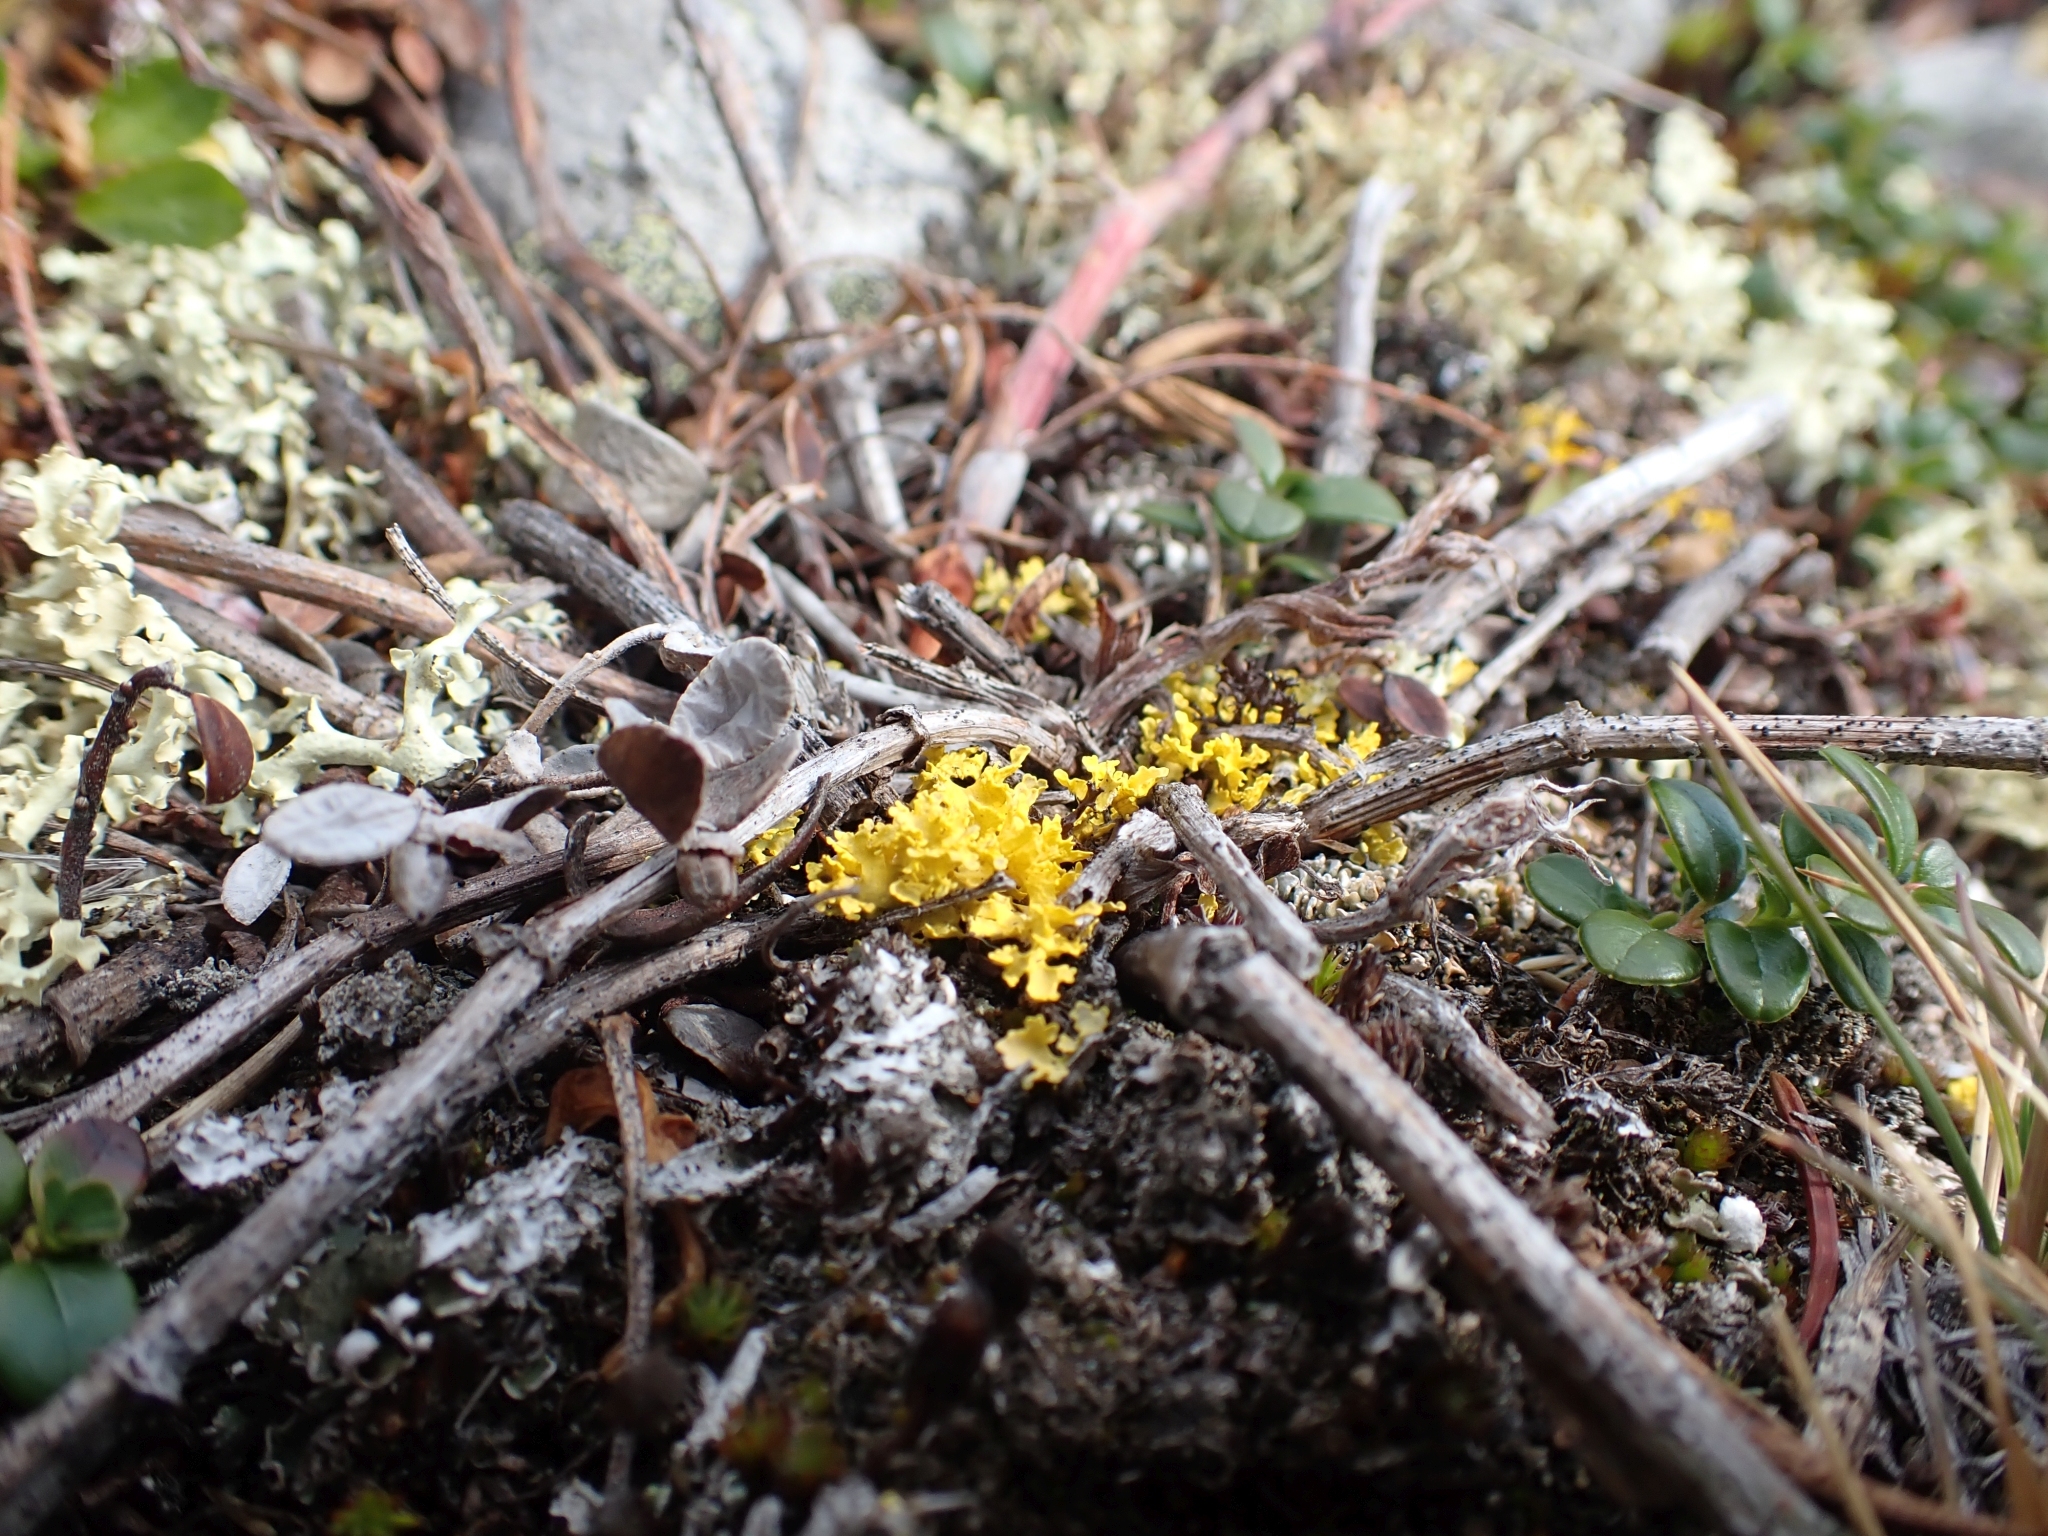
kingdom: Fungi
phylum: Ascomycota
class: Lecanoromycetes
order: Lecanorales
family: Parmeliaceae
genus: Vulpicida
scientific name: Vulpicida juniperinus
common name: Yellow lichen
